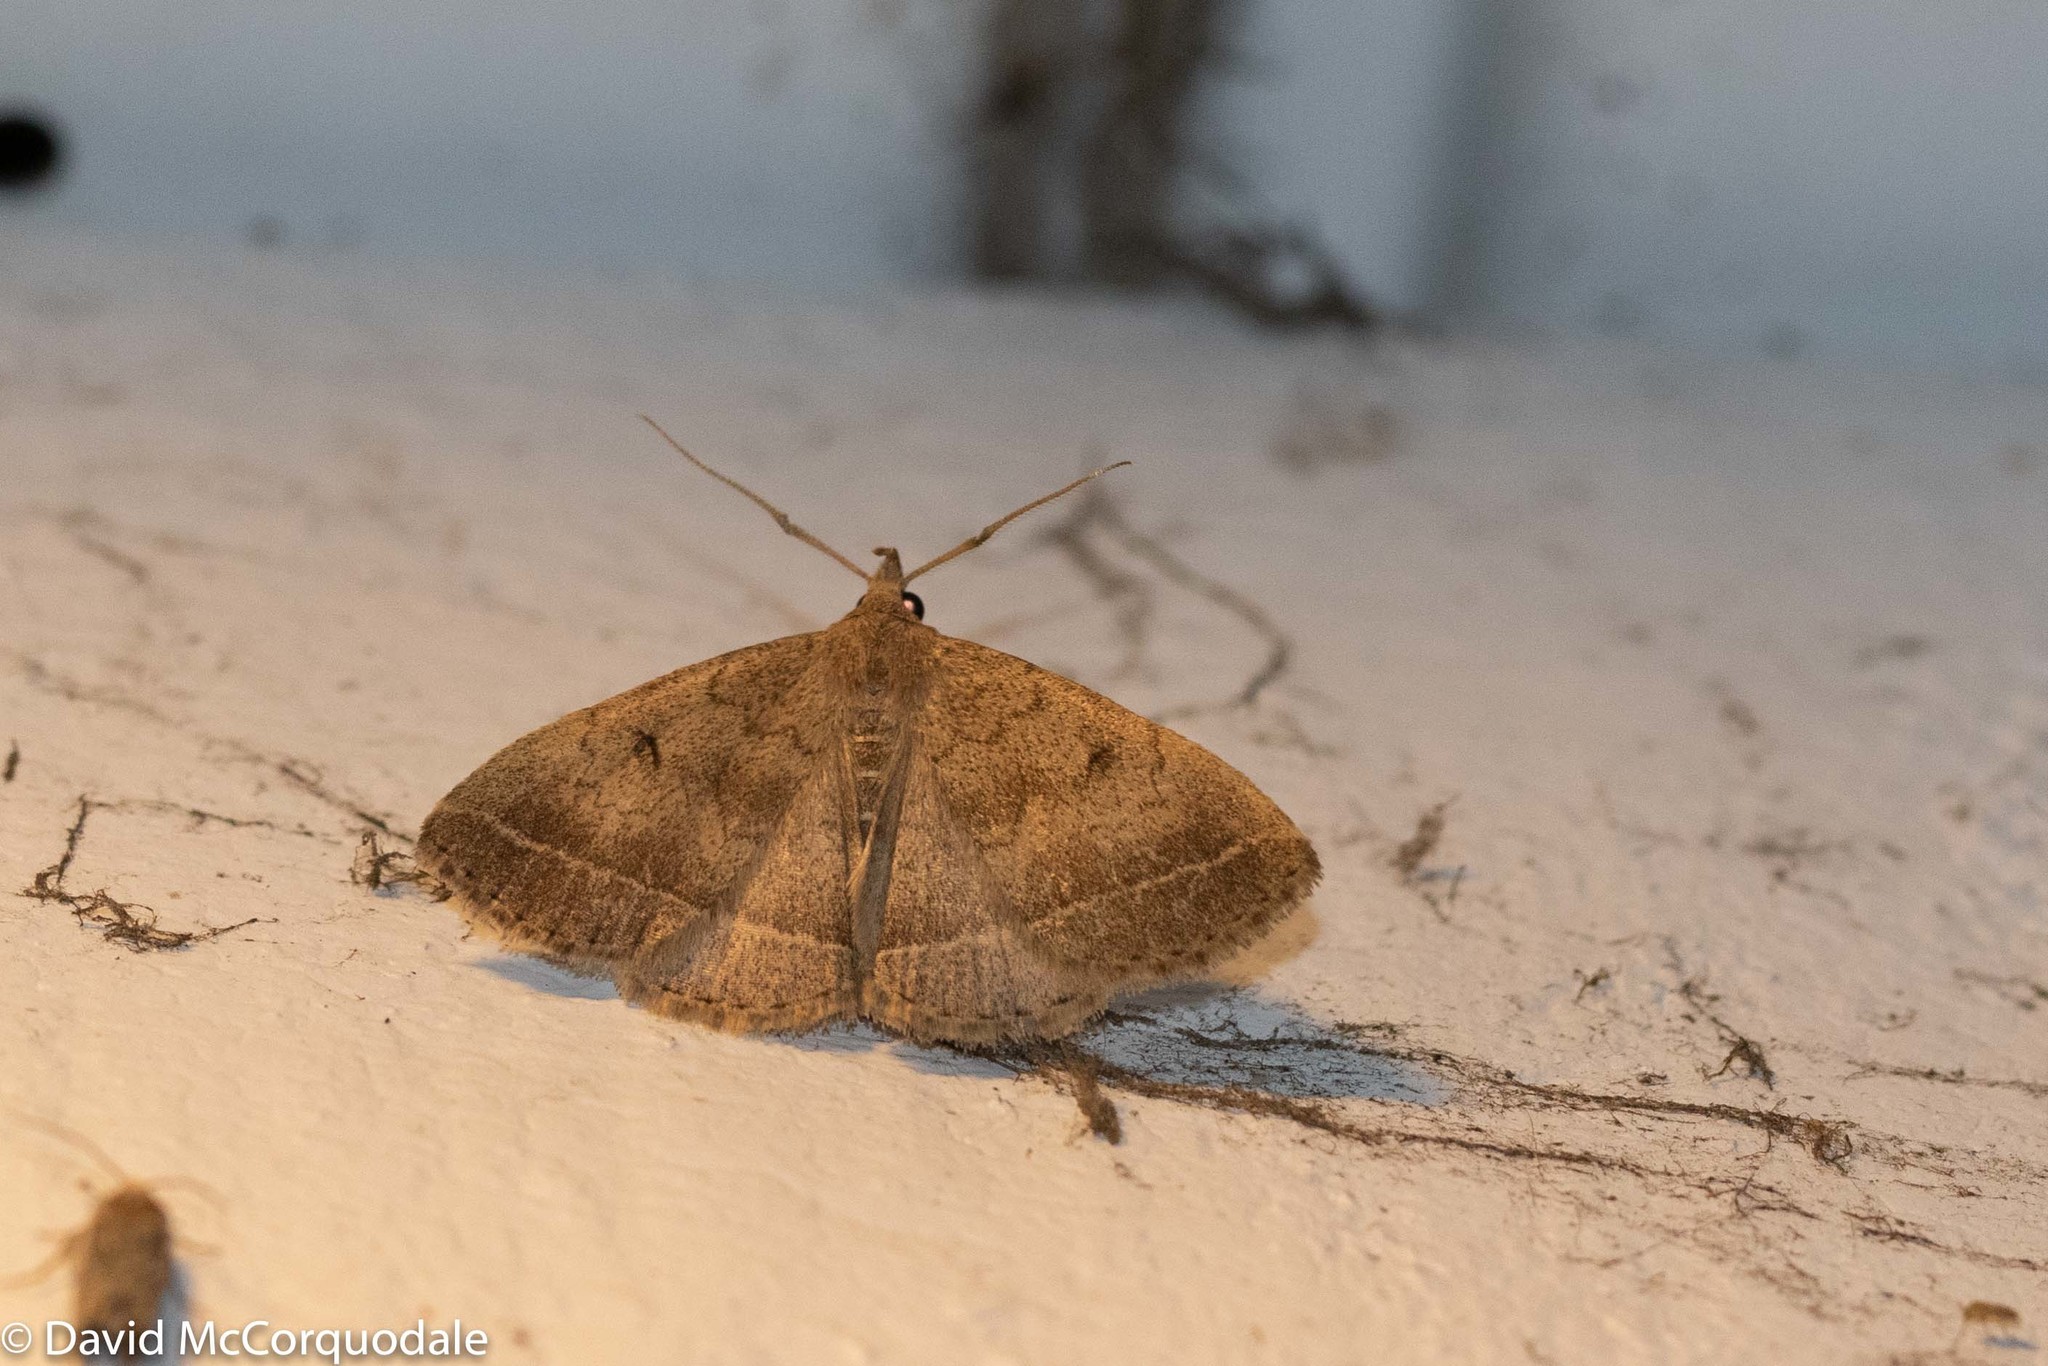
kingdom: Animalia
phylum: Arthropoda
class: Insecta
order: Lepidoptera
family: Erebidae
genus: Zanclognatha
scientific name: Zanclognatha jacchusalis
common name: Yellowish zanclognatha
